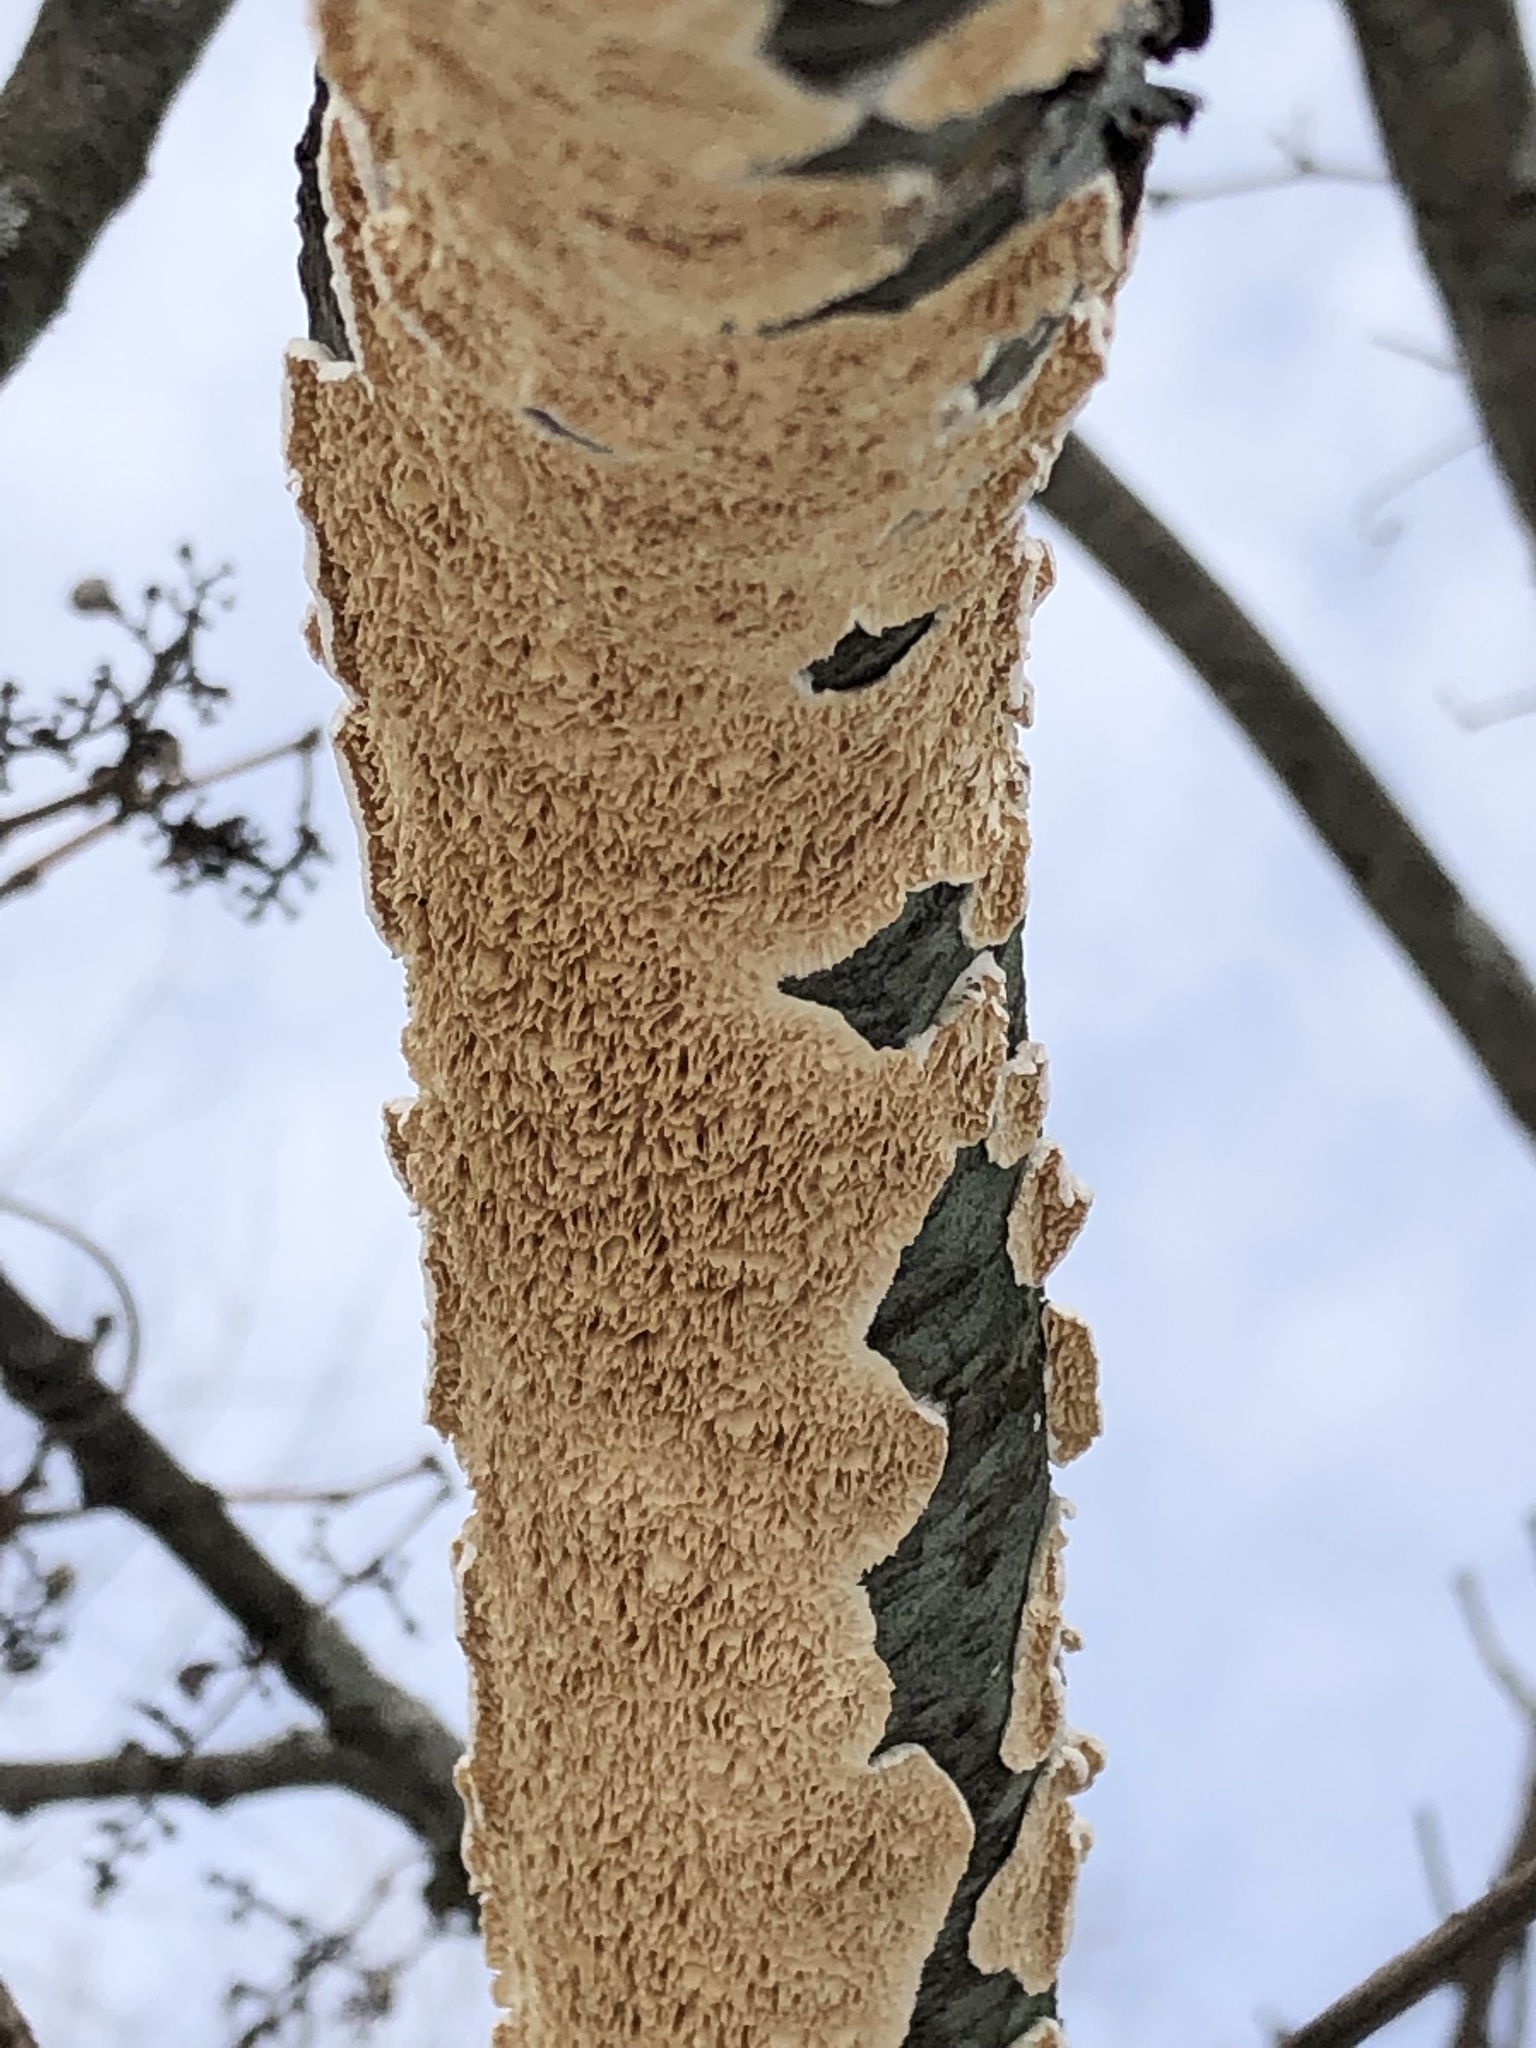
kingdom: Fungi
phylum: Basidiomycota
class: Agaricomycetes
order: Polyporales
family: Irpicaceae
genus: Irpex
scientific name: Irpex lacteus
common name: Milk-white toothed polypore
